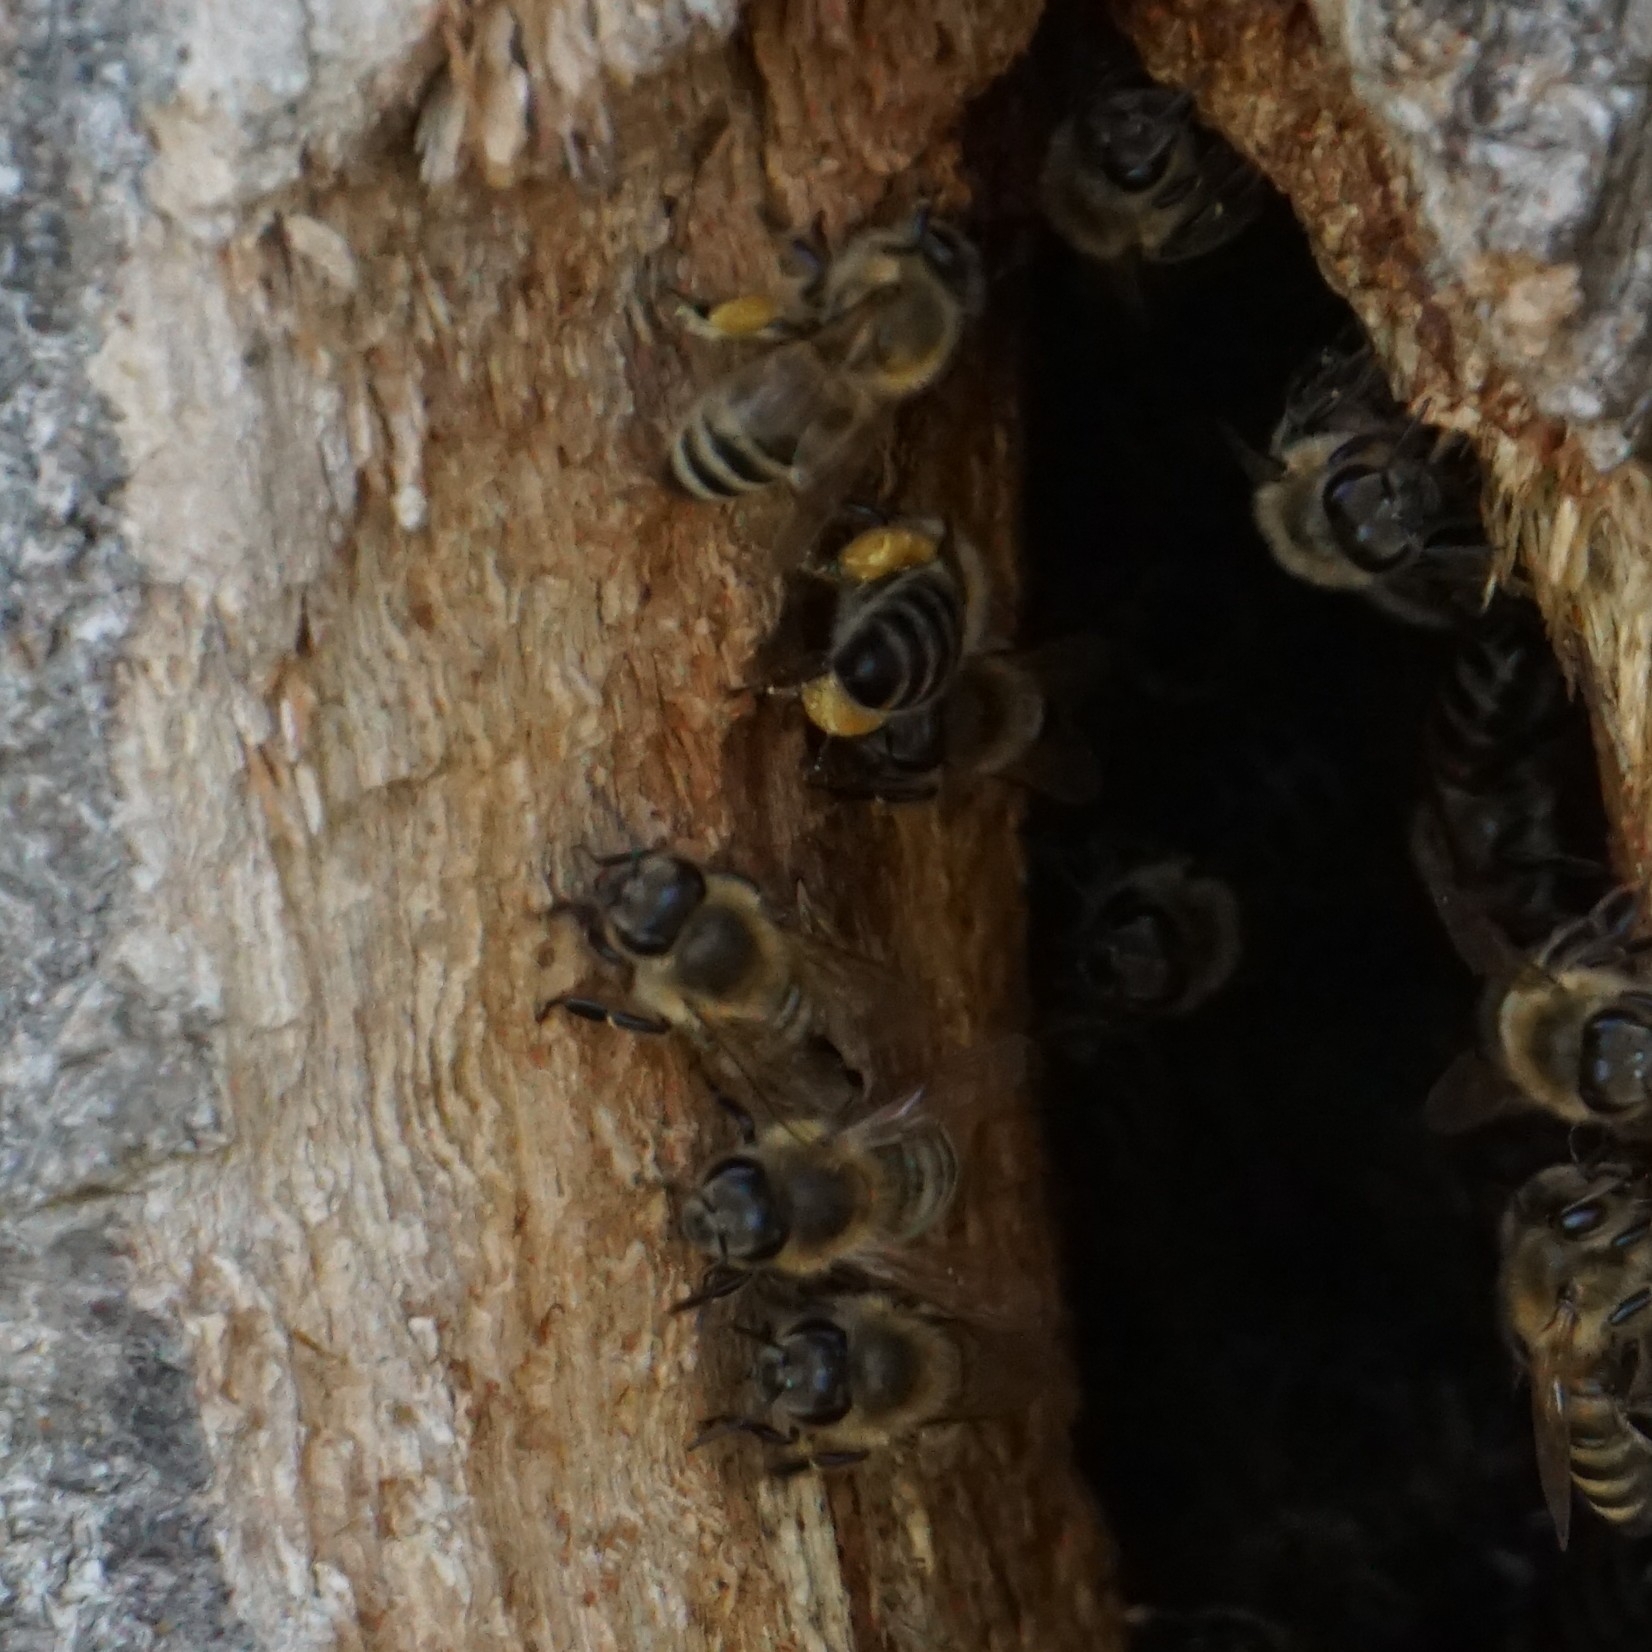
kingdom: Animalia
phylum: Arthropoda
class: Insecta
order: Hymenoptera
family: Apidae
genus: Apis
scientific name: Apis mellifera
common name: Honey bee
